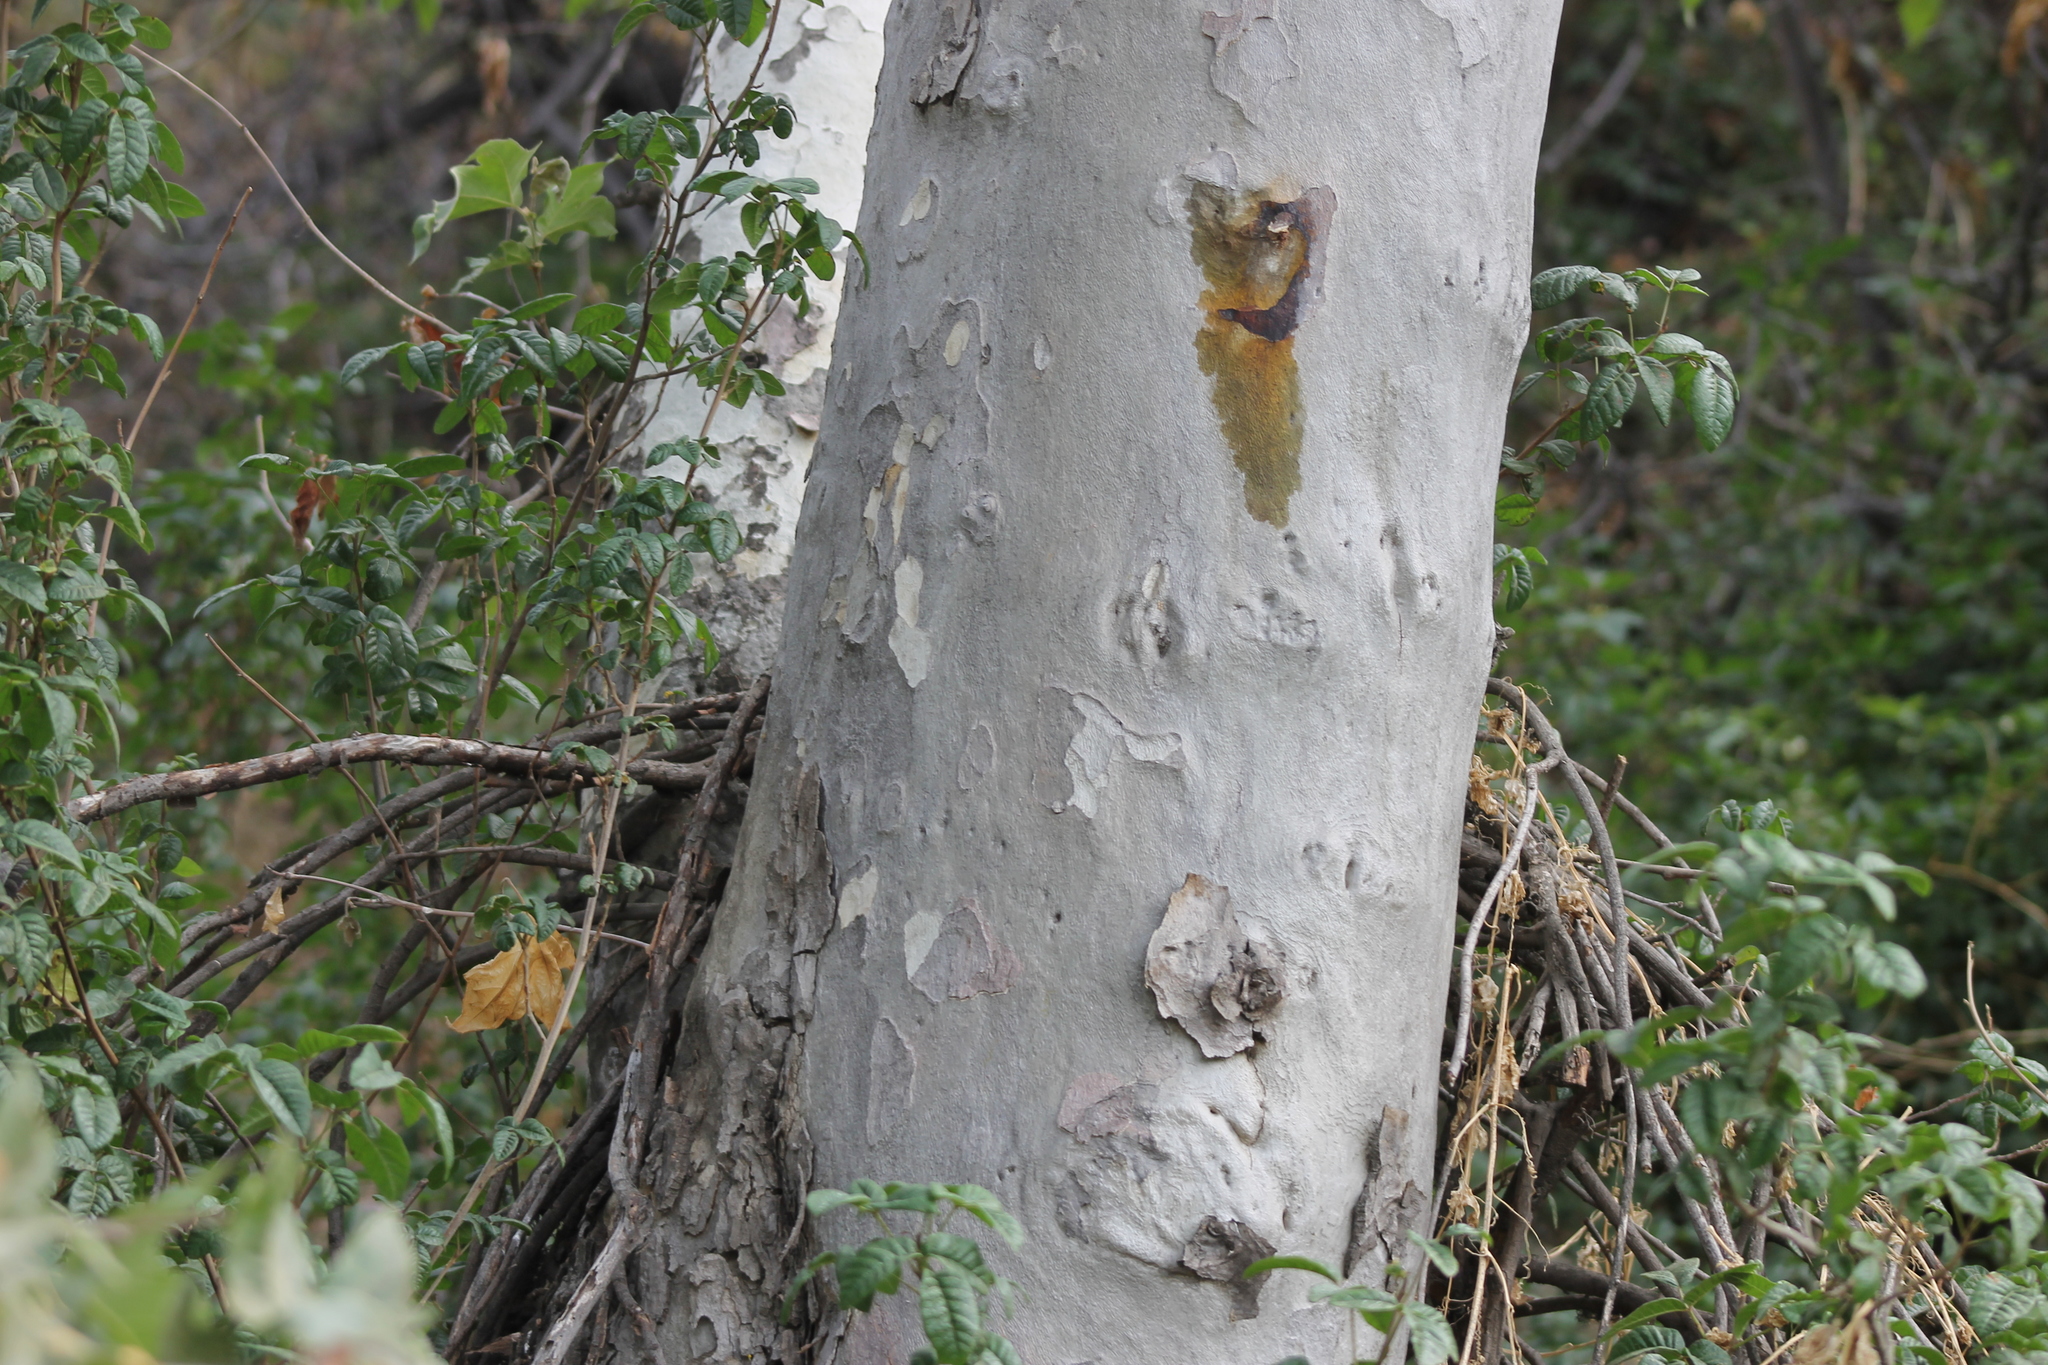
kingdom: Plantae
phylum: Tracheophyta
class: Magnoliopsida
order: Proteales
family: Platanaceae
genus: Platanus
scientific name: Platanus racemosa
